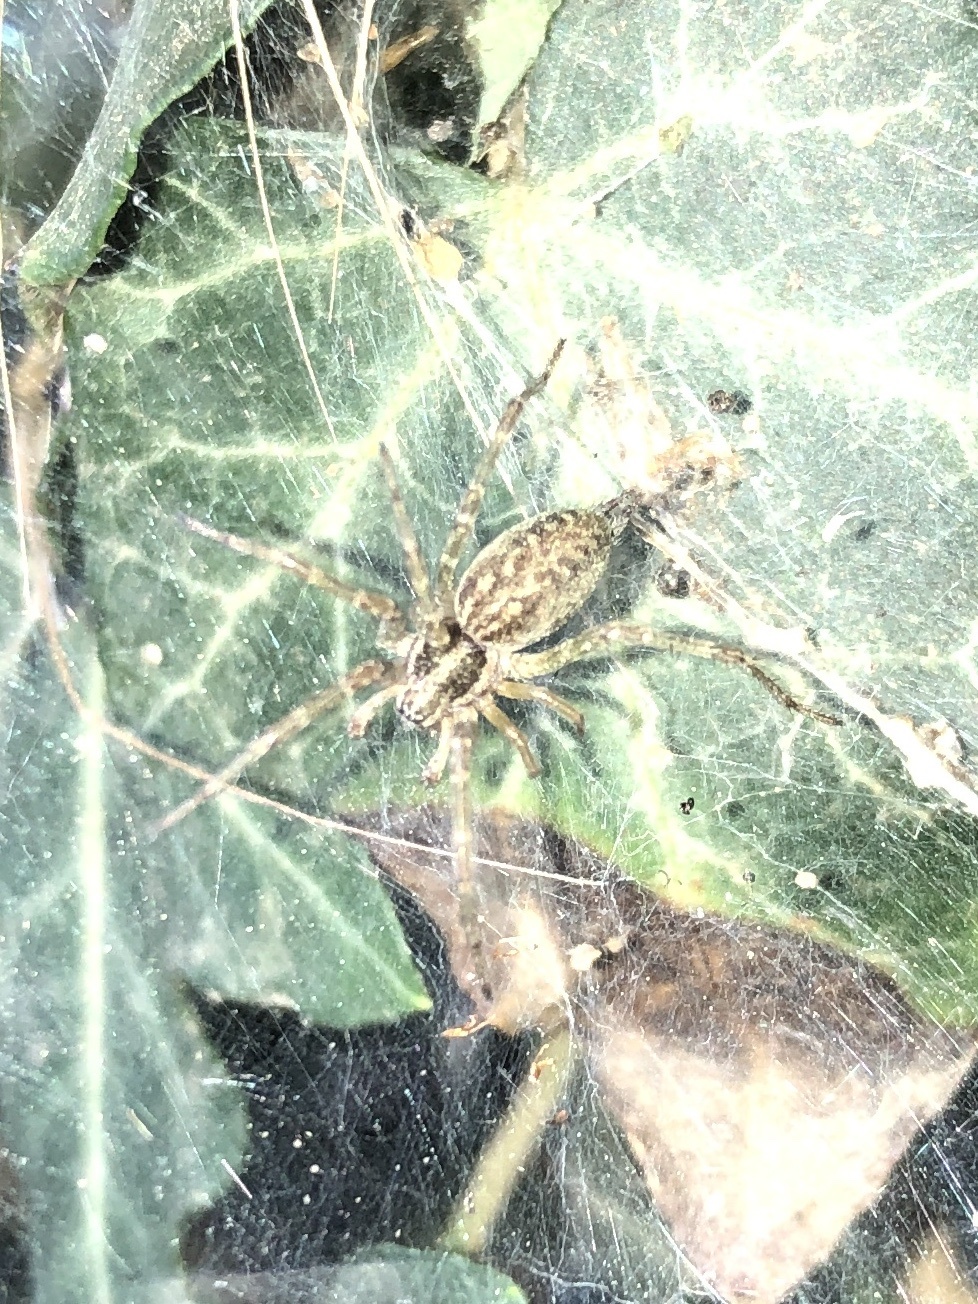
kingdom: Animalia
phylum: Arthropoda
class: Arachnida
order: Araneae
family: Agelenidae
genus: Allagelena
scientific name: Allagelena gracilens
